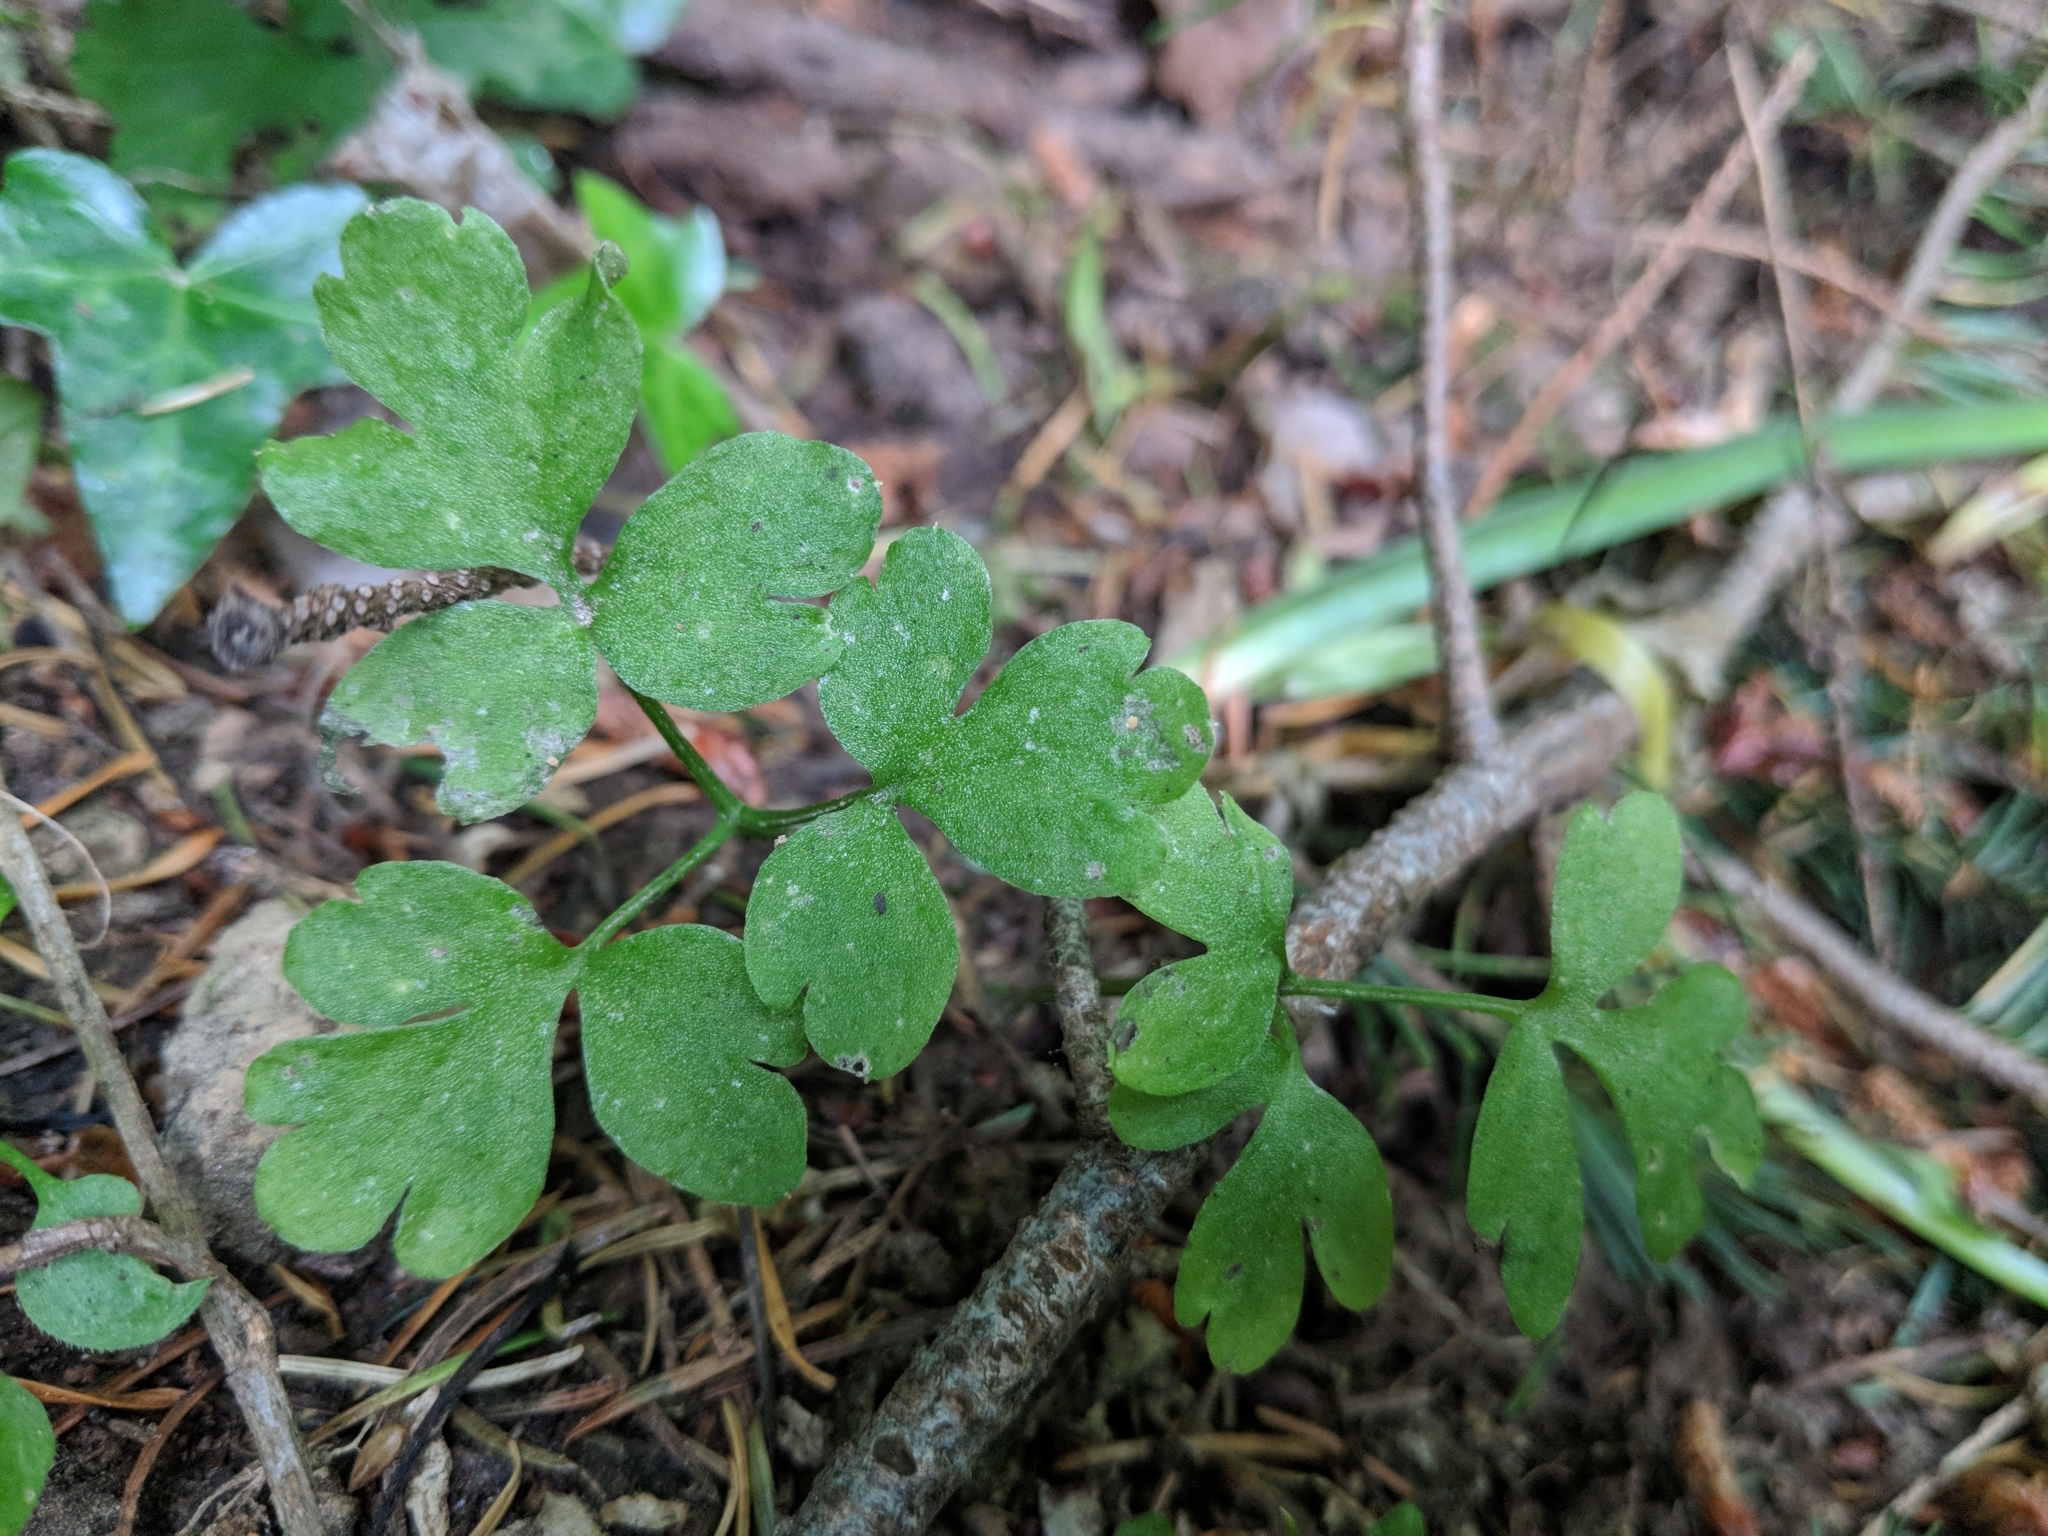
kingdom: Plantae
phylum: Tracheophyta
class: Magnoliopsida
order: Dipsacales
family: Viburnaceae
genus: Adoxa
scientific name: Adoxa moschatellina
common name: Moschatel
